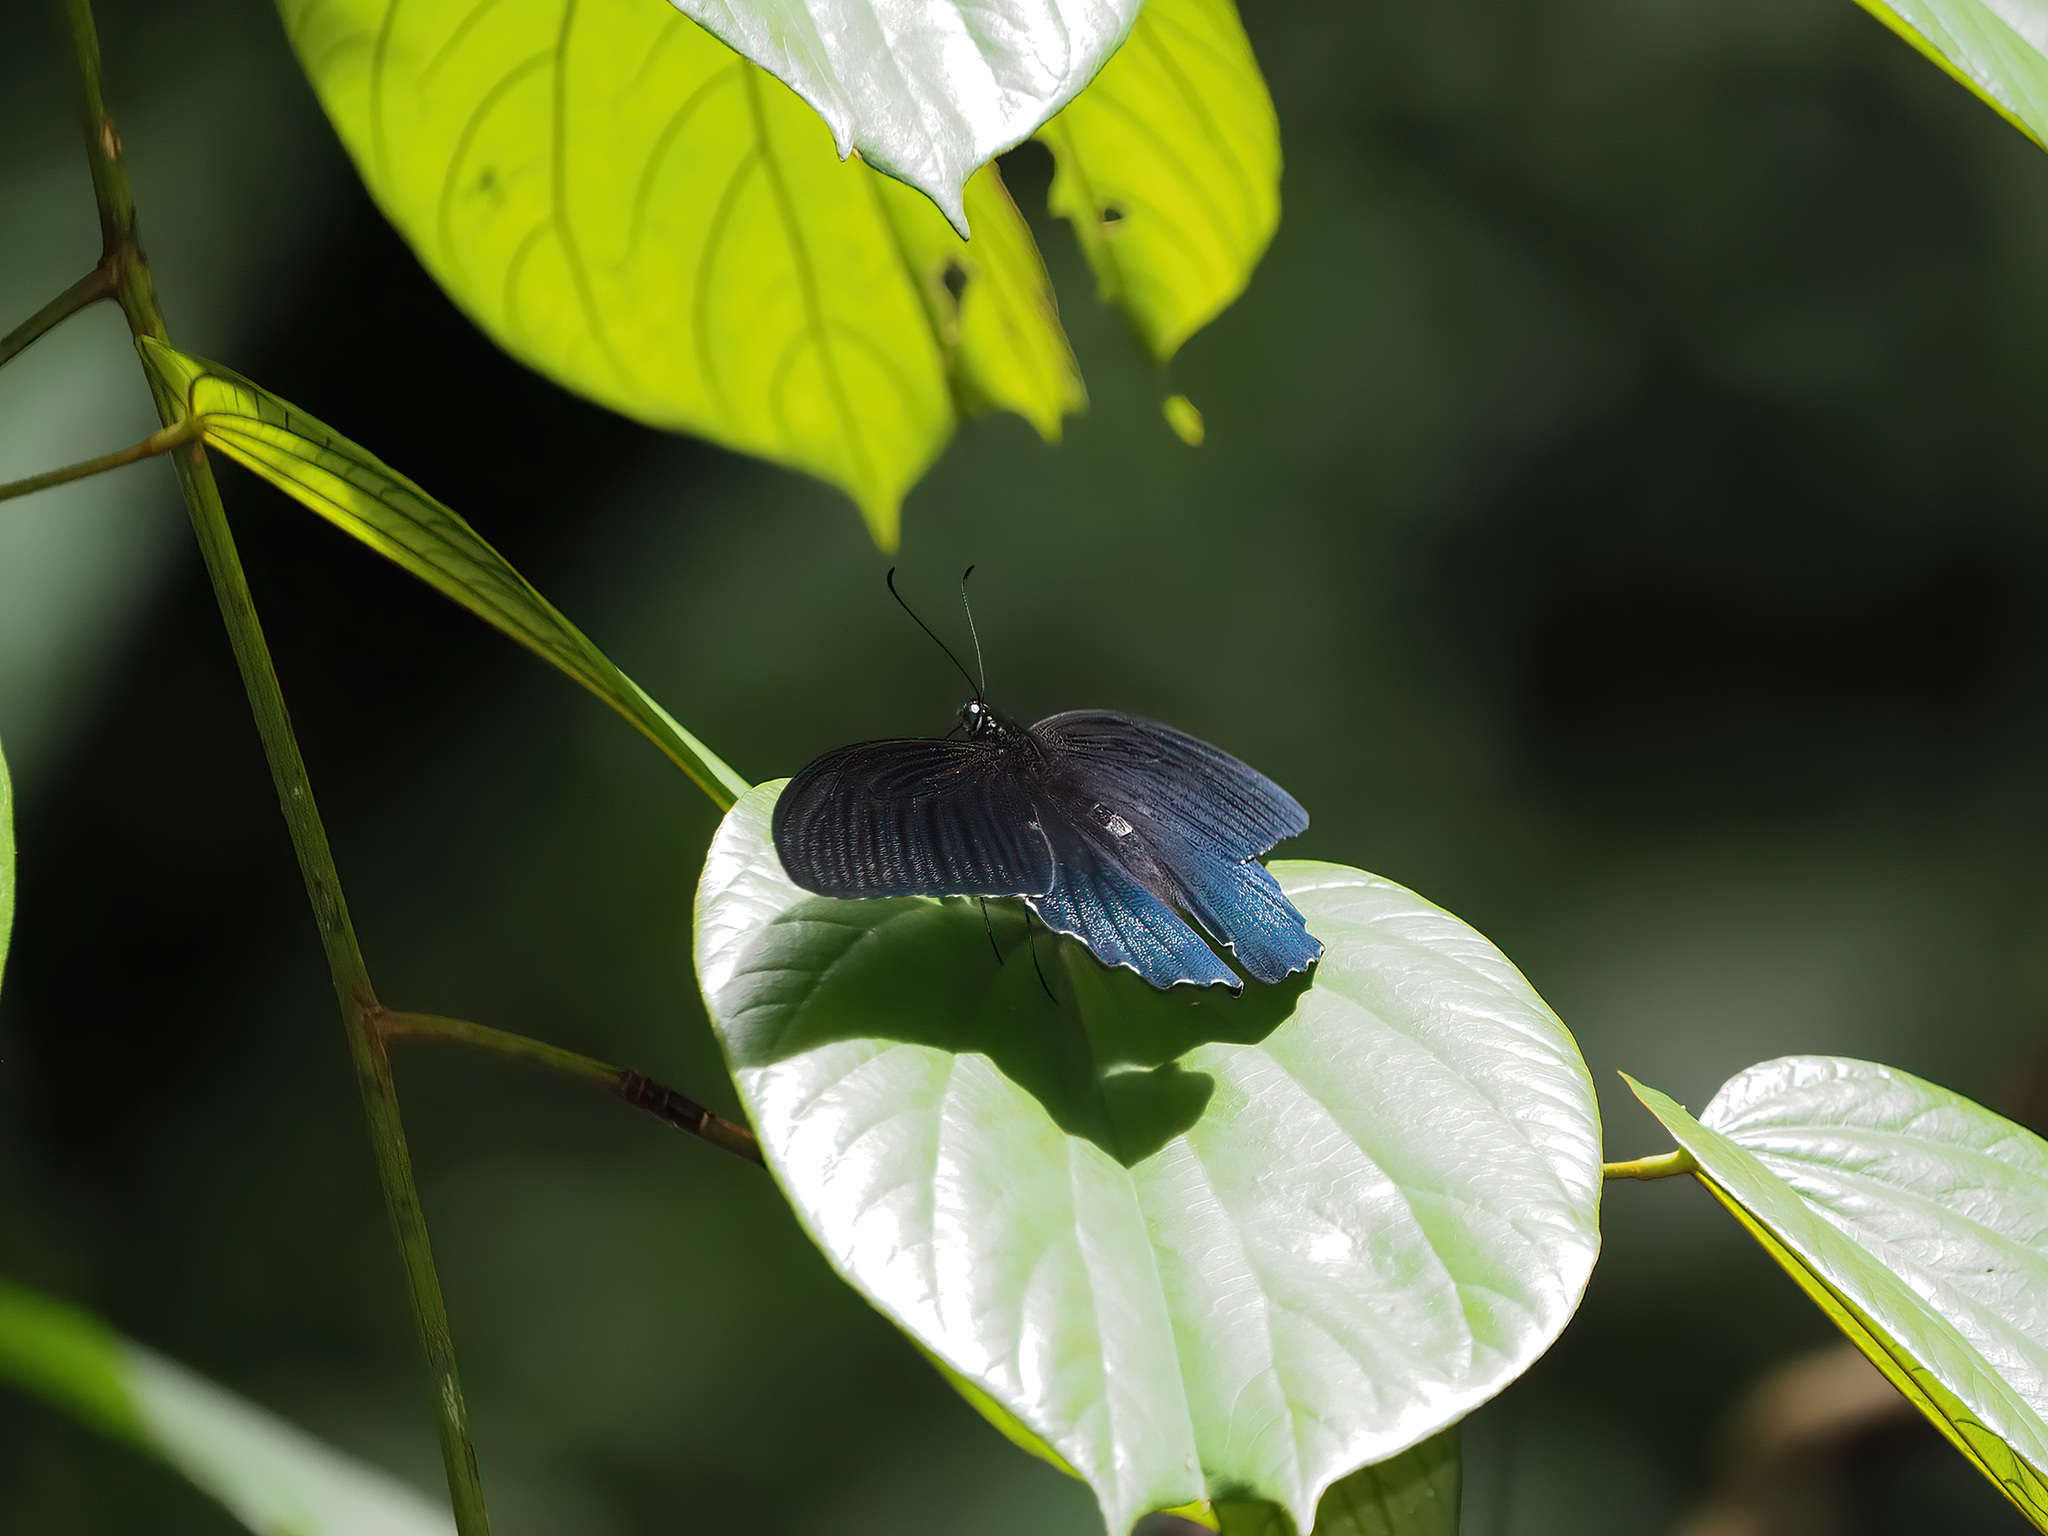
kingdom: Animalia
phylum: Arthropoda
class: Insecta
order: Lepidoptera
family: Papilionidae
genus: Papilio
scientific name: Papilio acheron
